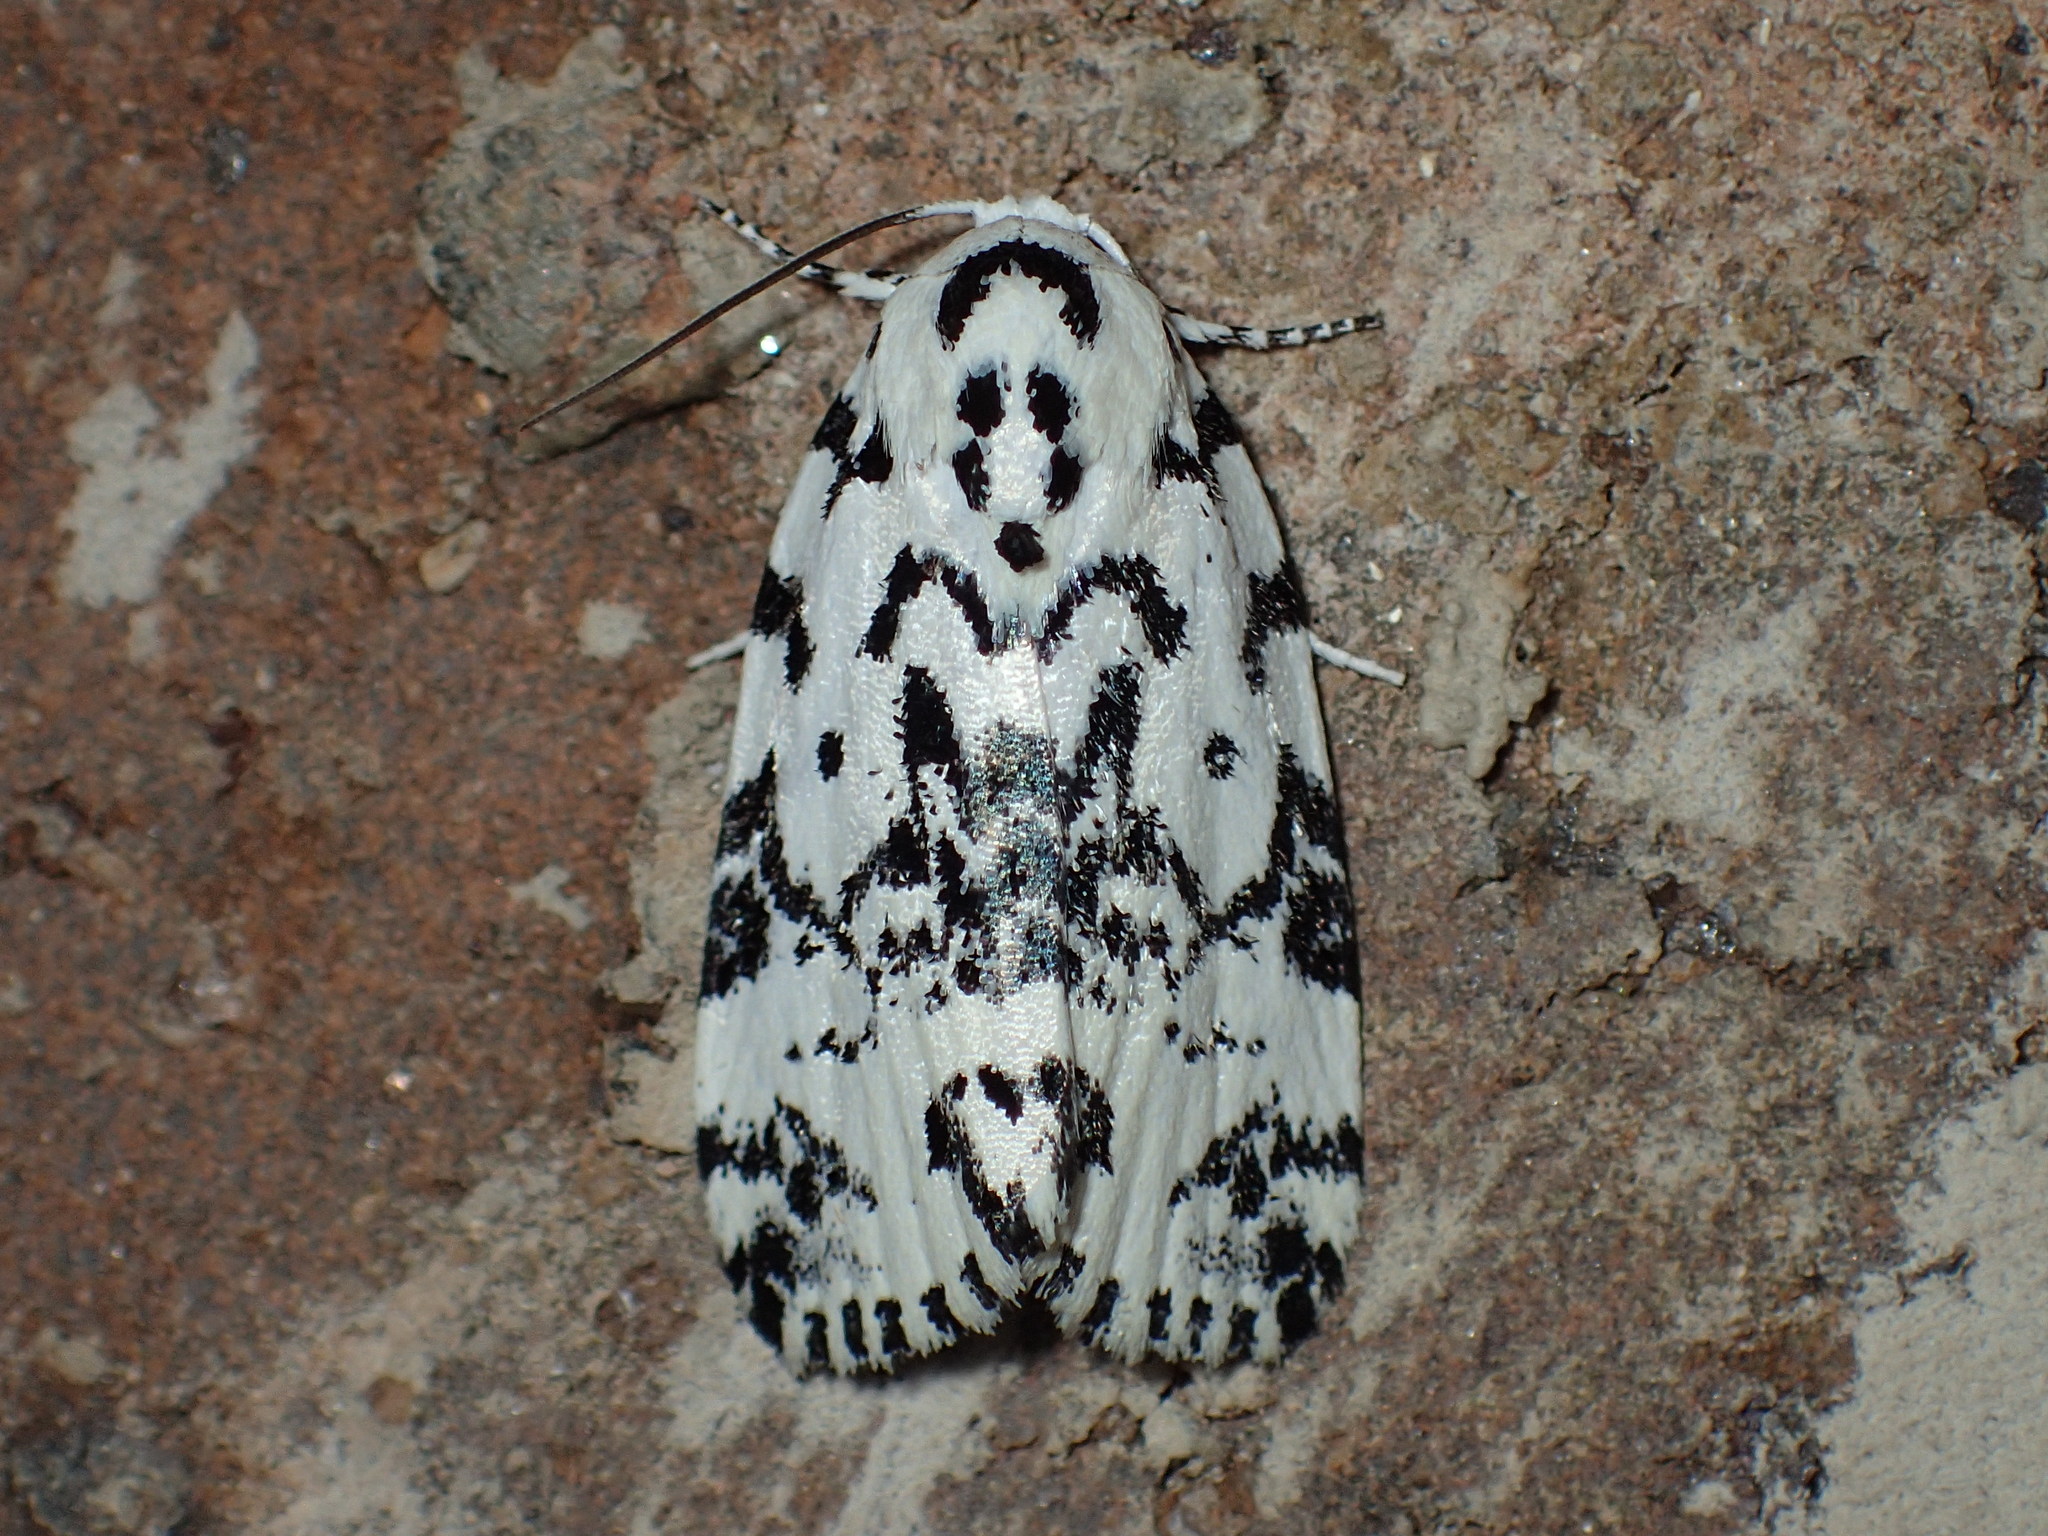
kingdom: Animalia
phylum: Arthropoda
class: Insecta
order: Lepidoptera
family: Noctuidae
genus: Polygrammate
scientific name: Polygrammate hebraeicum
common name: Hebrew moth
